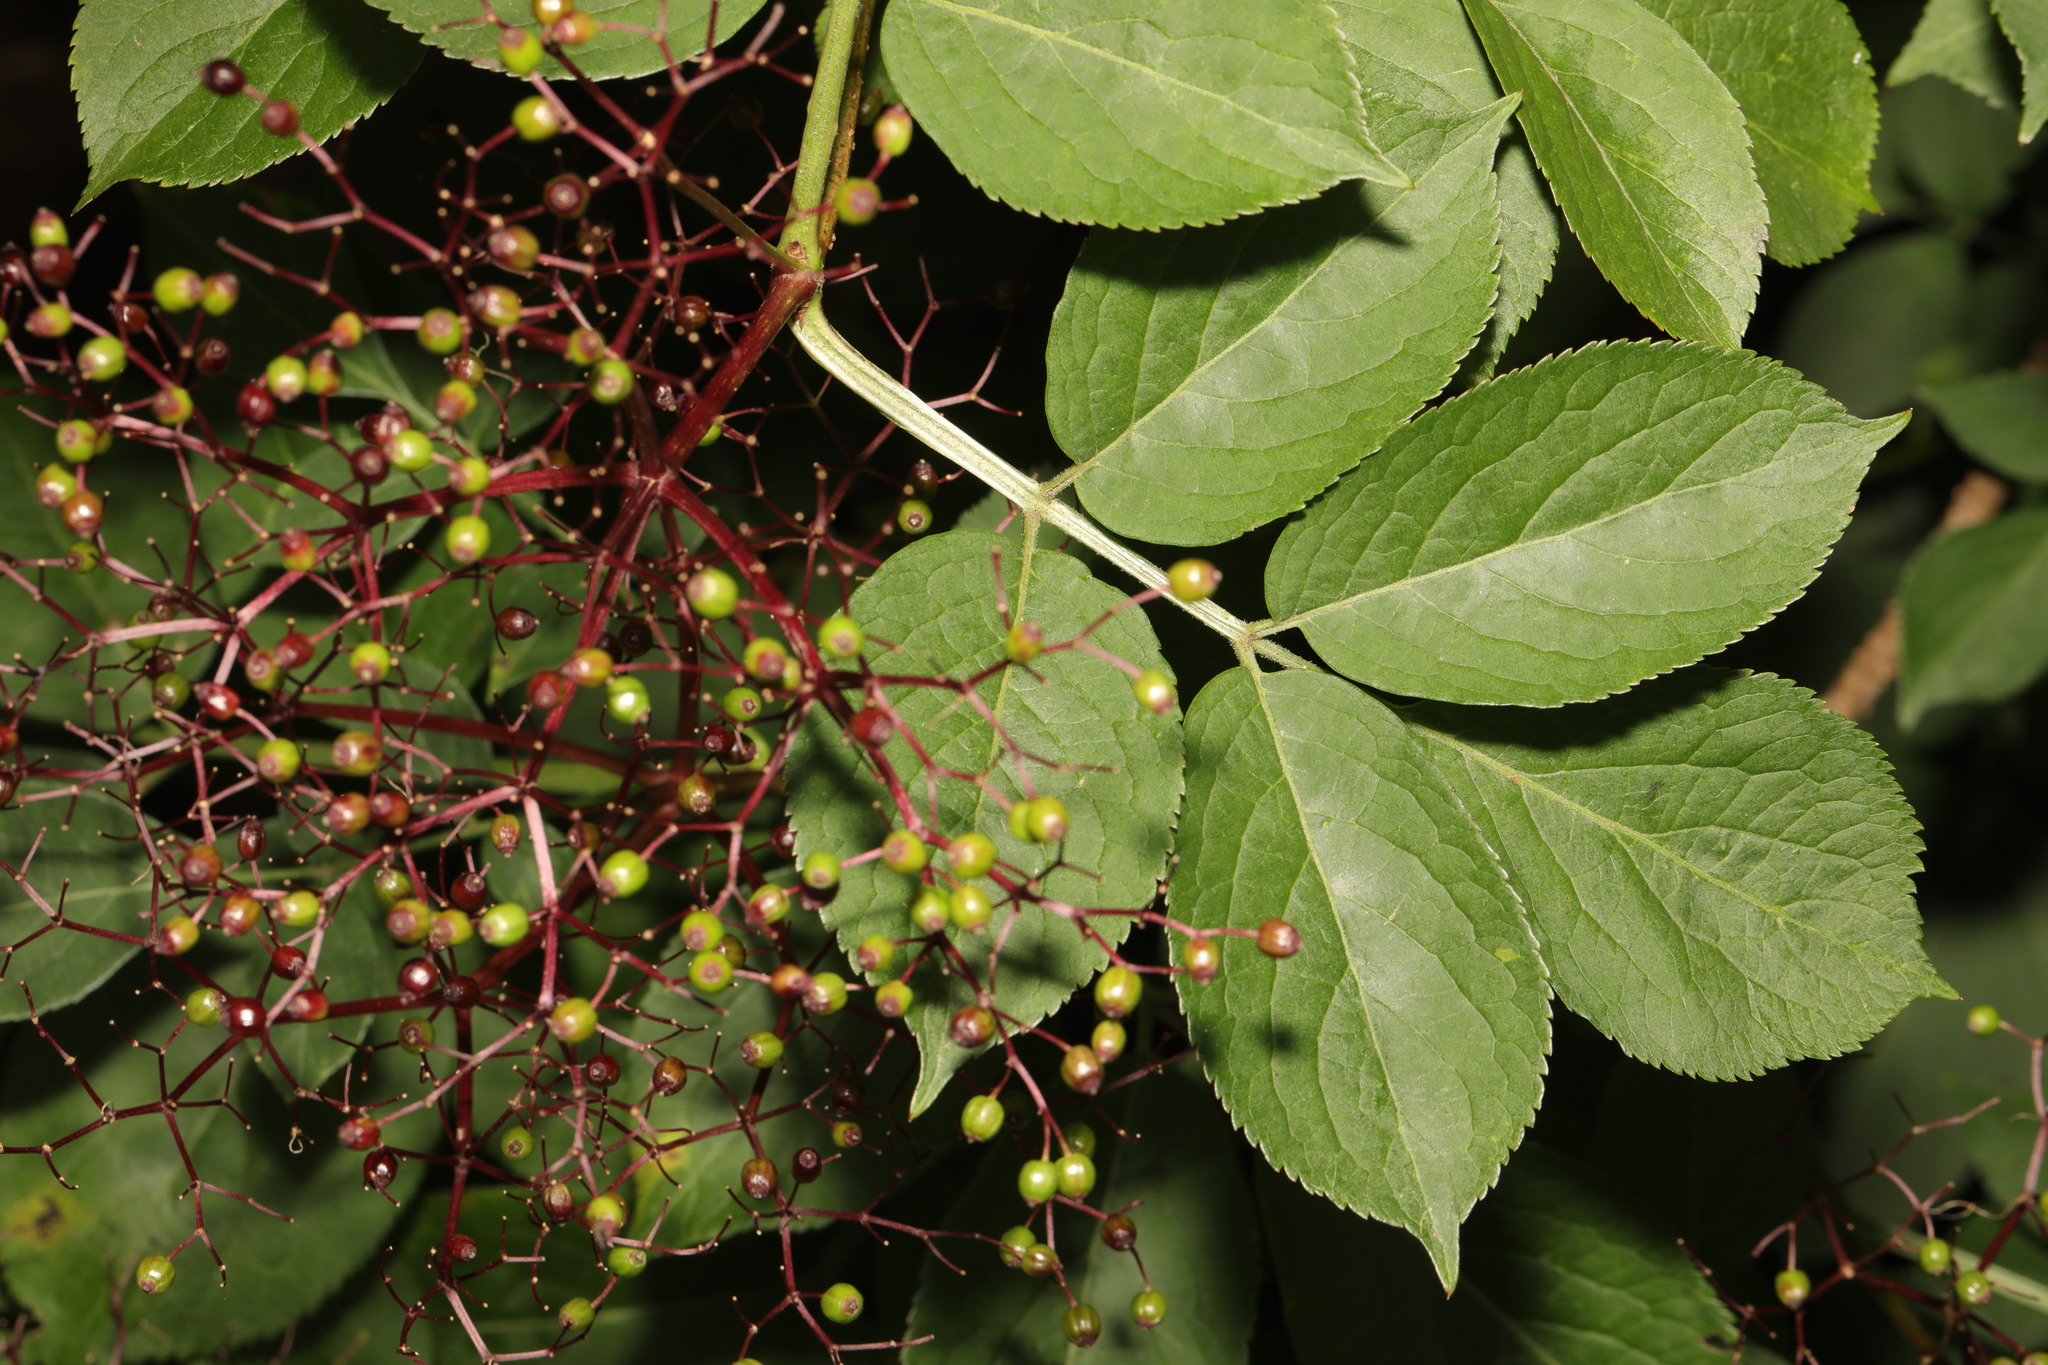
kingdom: Plantae
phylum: Tracheophyta
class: Magnoliopsida
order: Dipsacales
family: Viburnaceae
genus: Sambucus
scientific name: Sambucus nigra
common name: Elder
